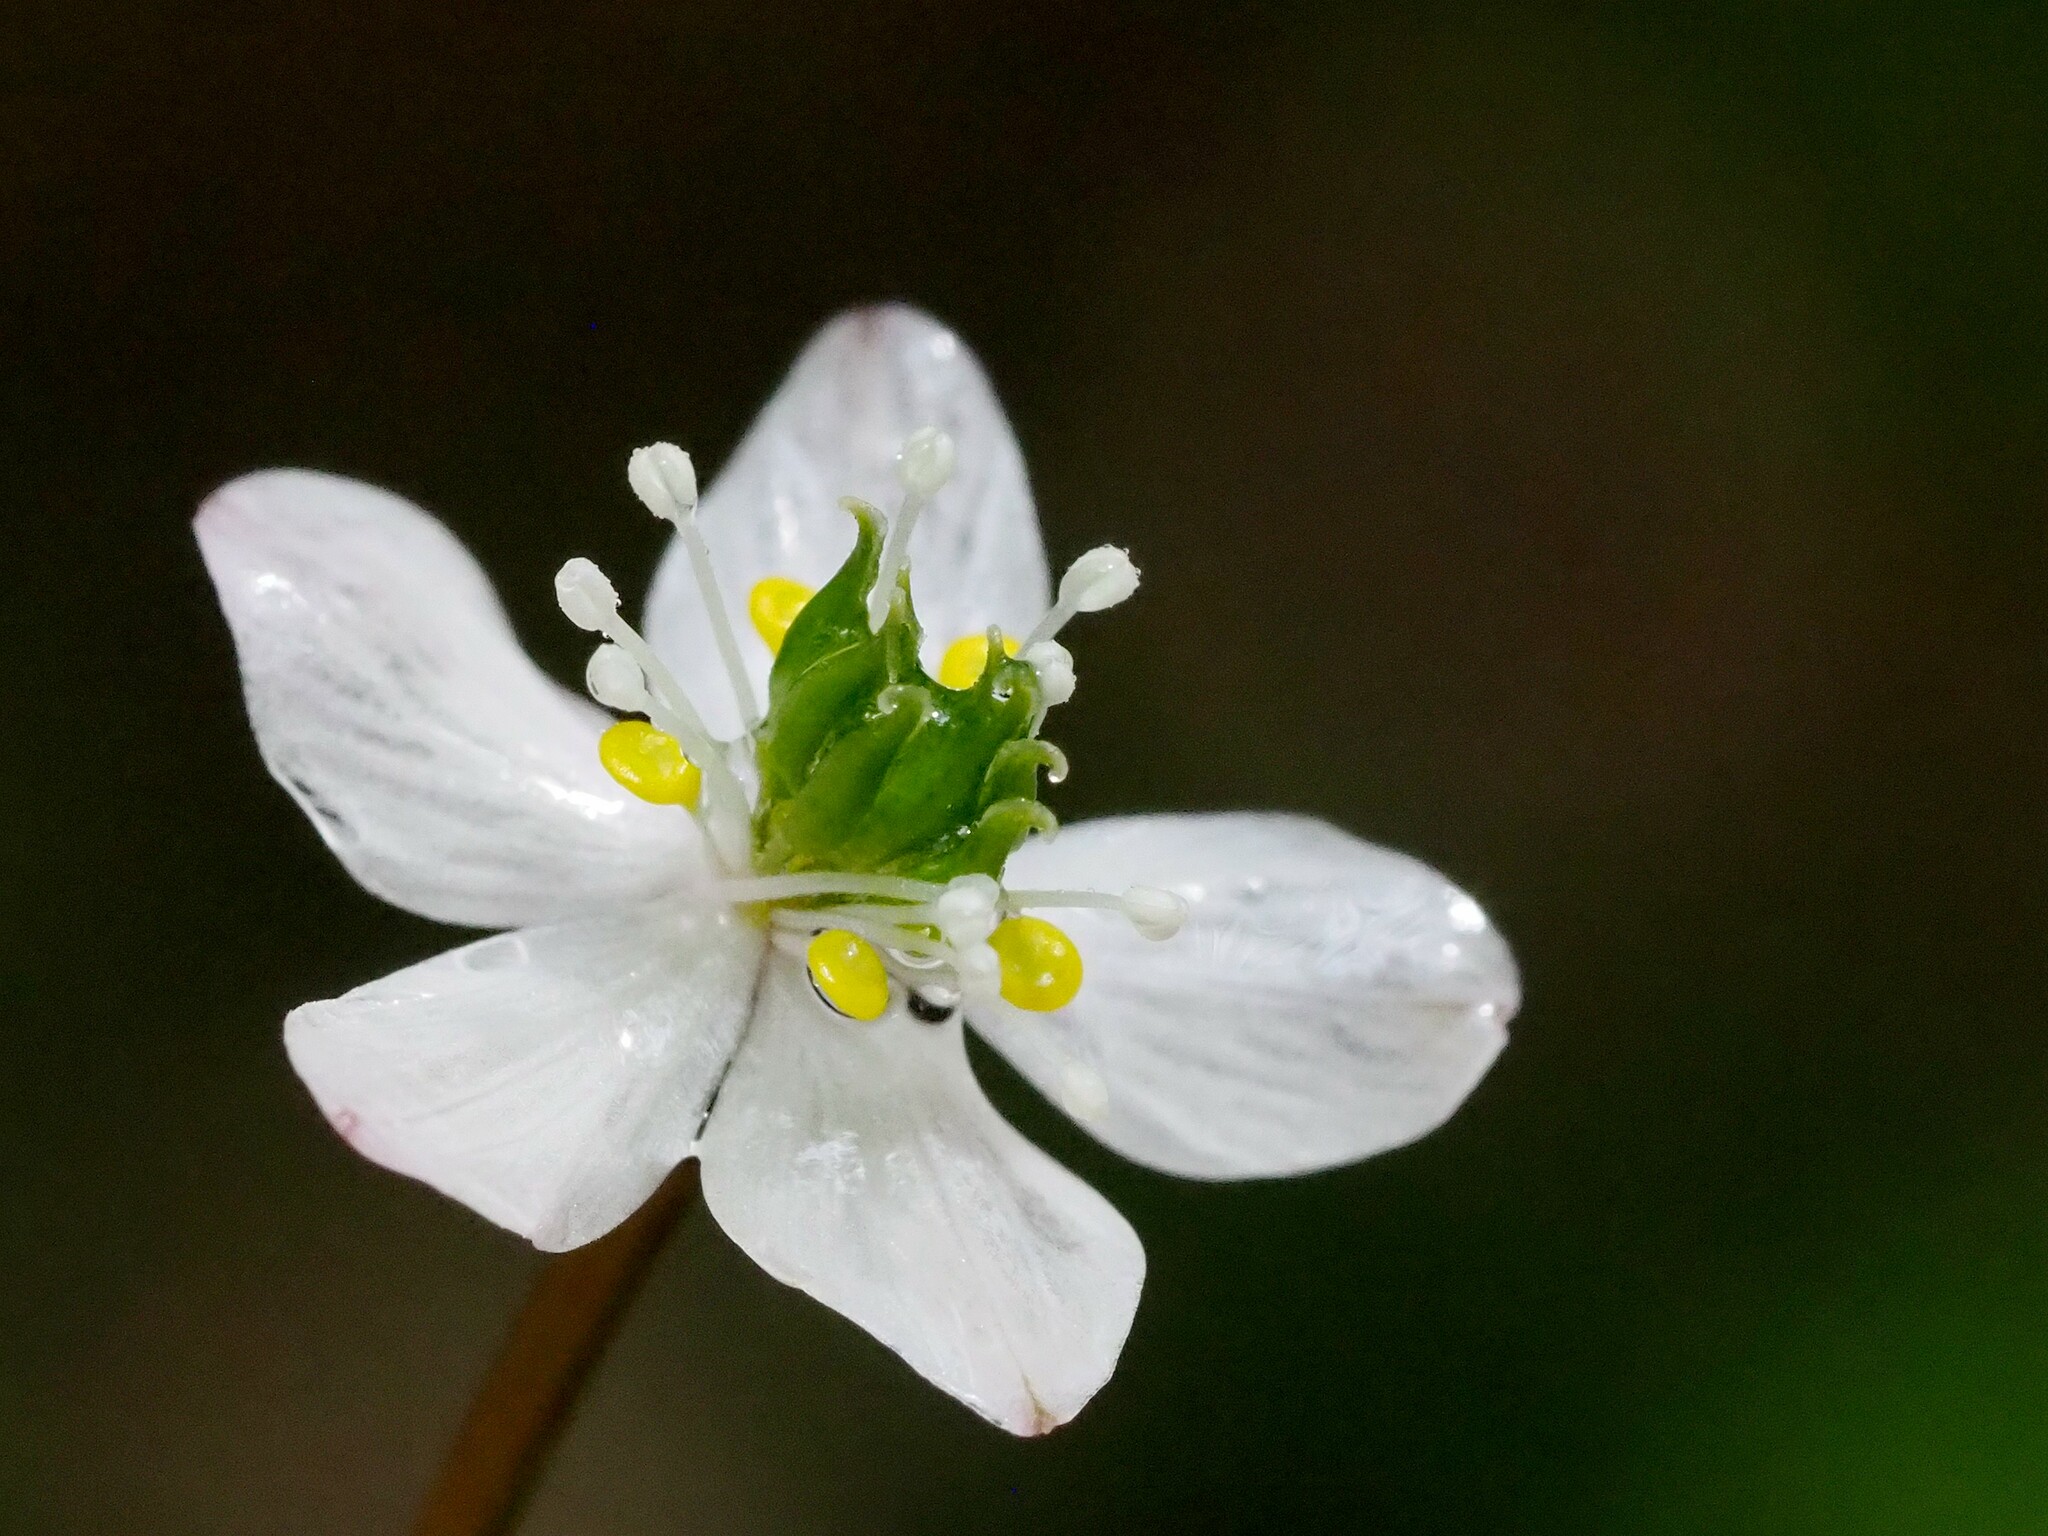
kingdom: Plantae
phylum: Tracheophyta
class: Magnoliopsida
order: Ranunculales
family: Ranunculaceae
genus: Coptis
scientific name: Coptis quinquefolia
